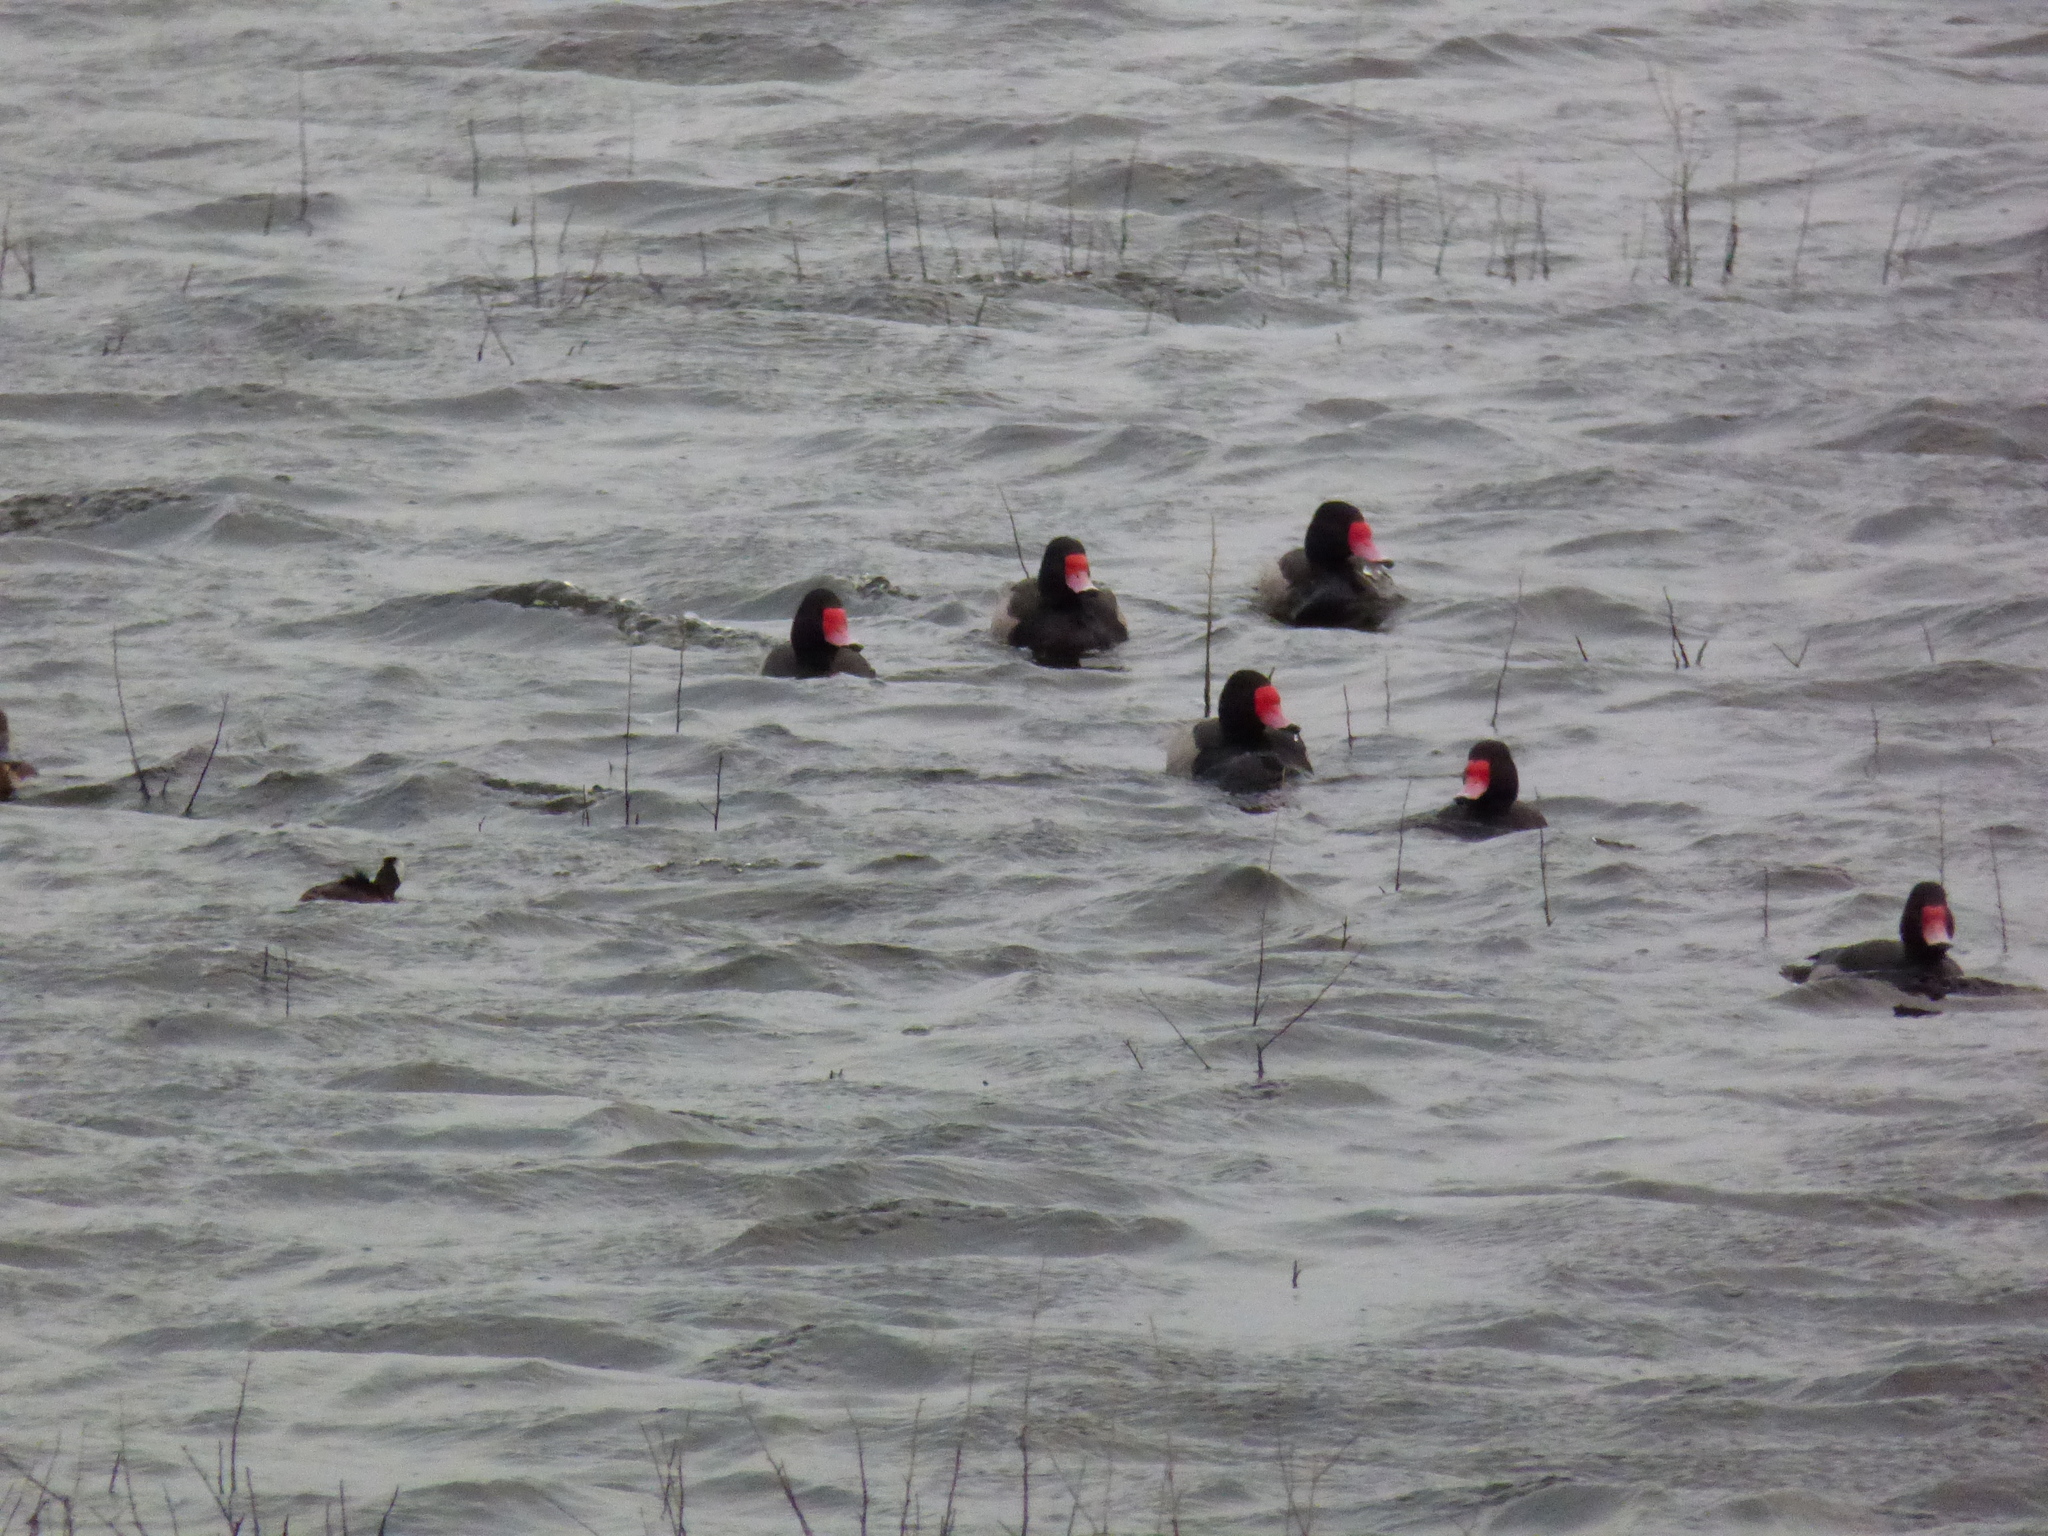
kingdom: Animalia
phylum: Chordata
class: Aves
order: Anseriformes
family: Anatidae
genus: Netta
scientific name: Netta peposaca
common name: Rosy-billed pochard
